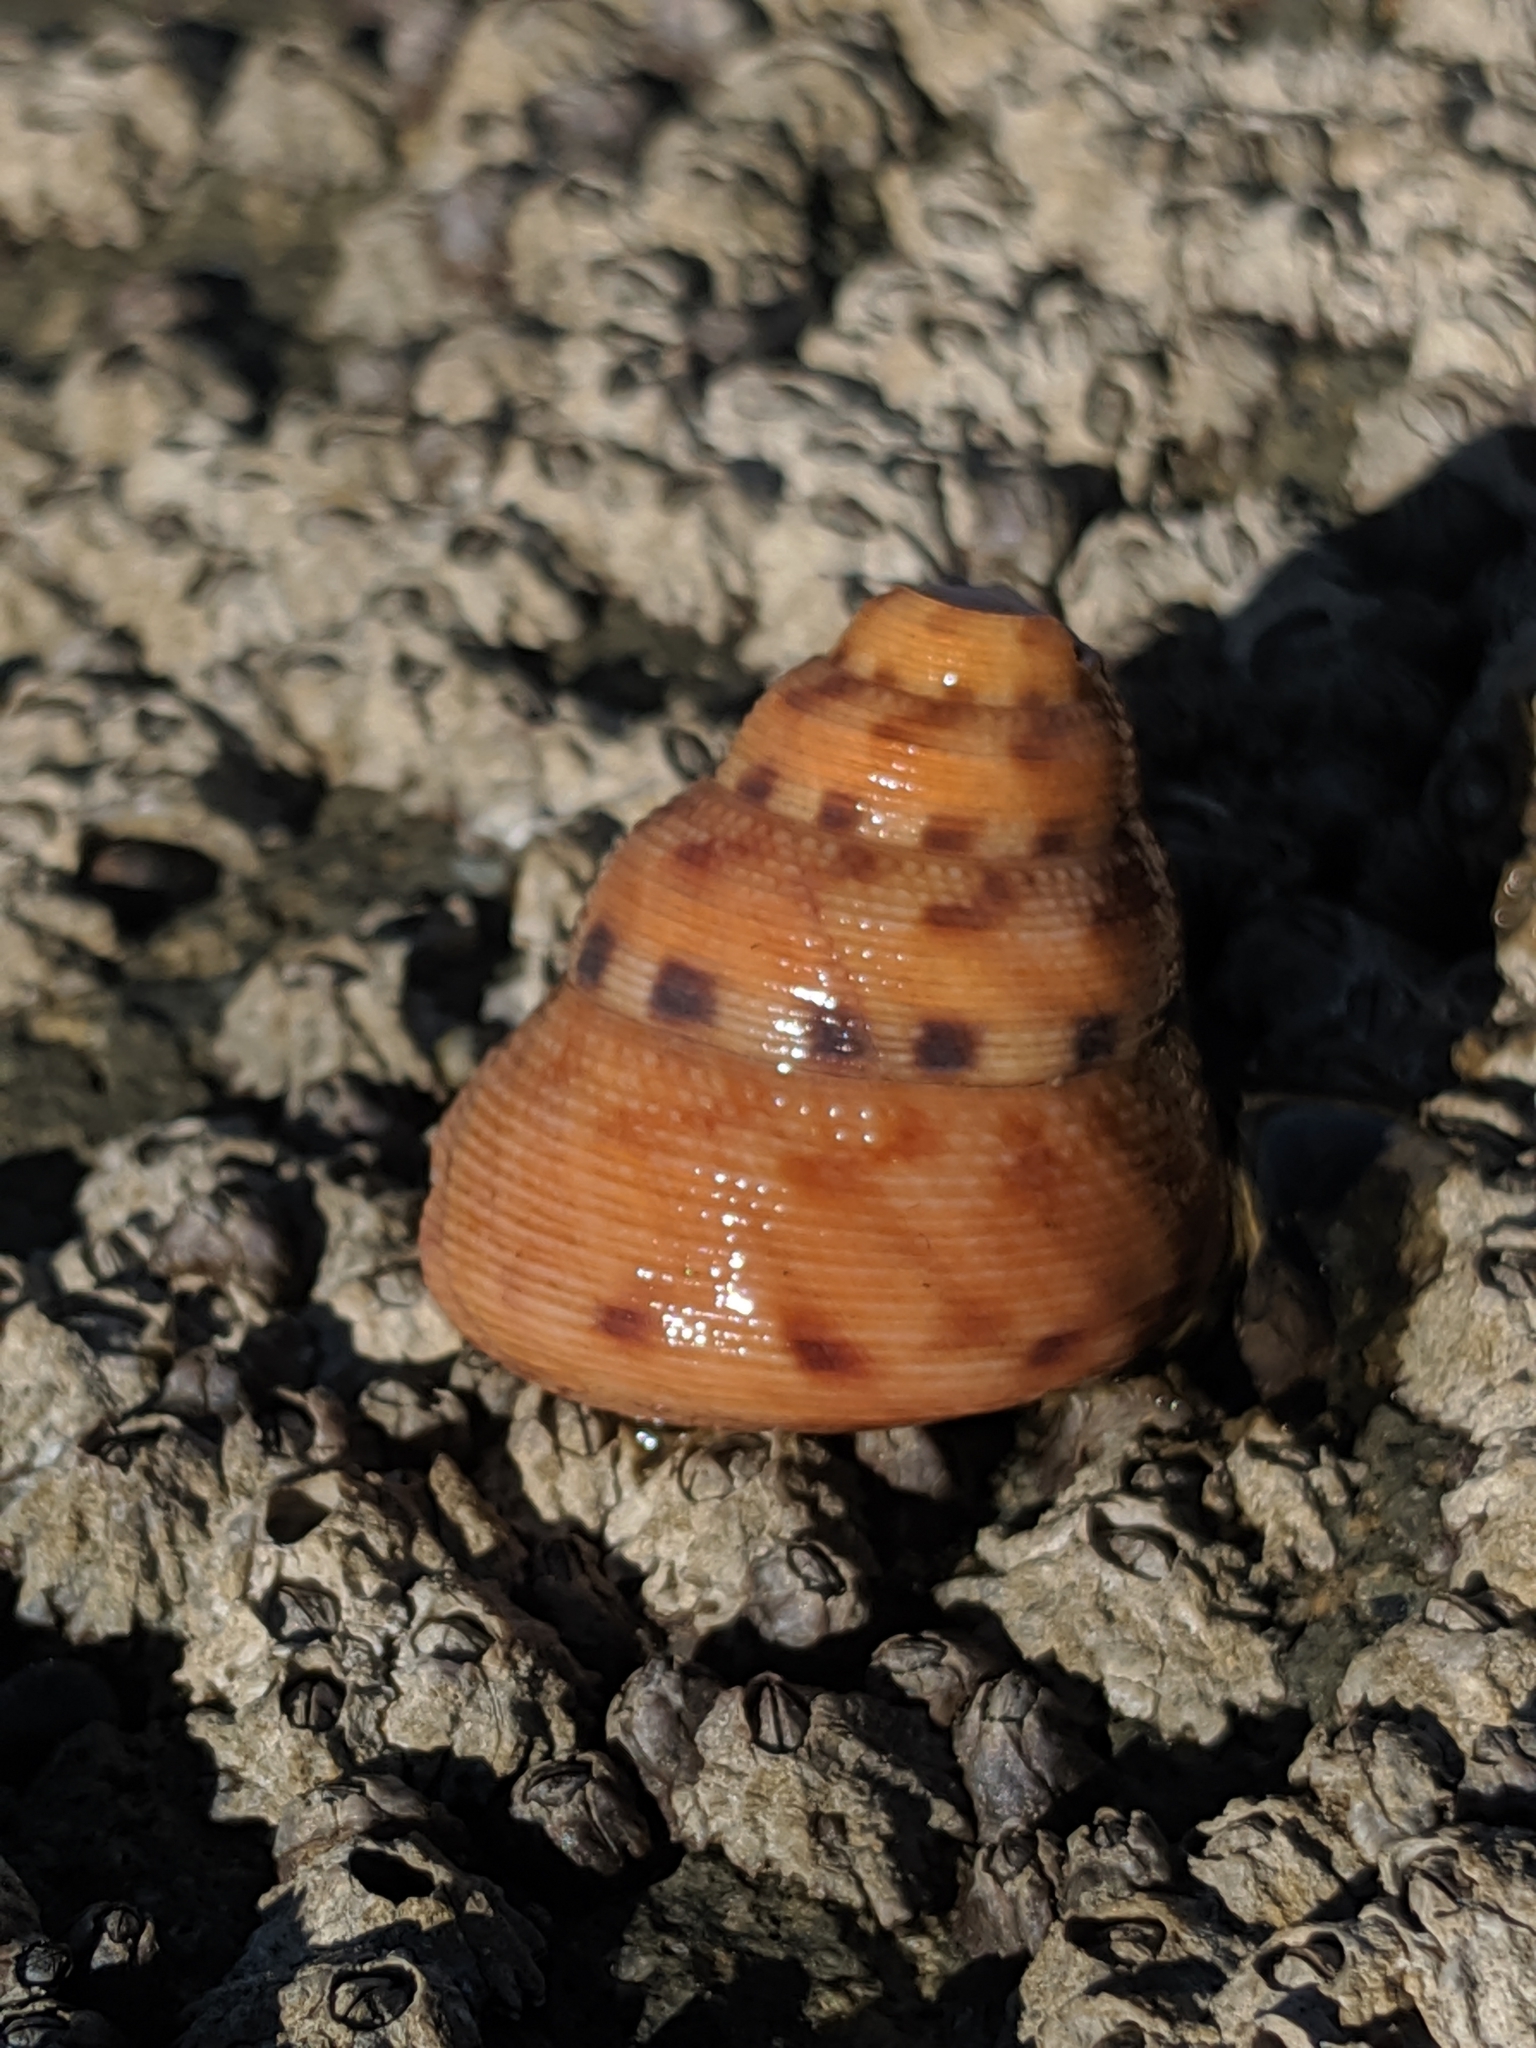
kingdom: Animalia
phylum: Mollusca
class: Gastropoda
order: Trochida
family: Calliostomatidae
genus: Calliostoma
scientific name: Calliostoma gloriosum
